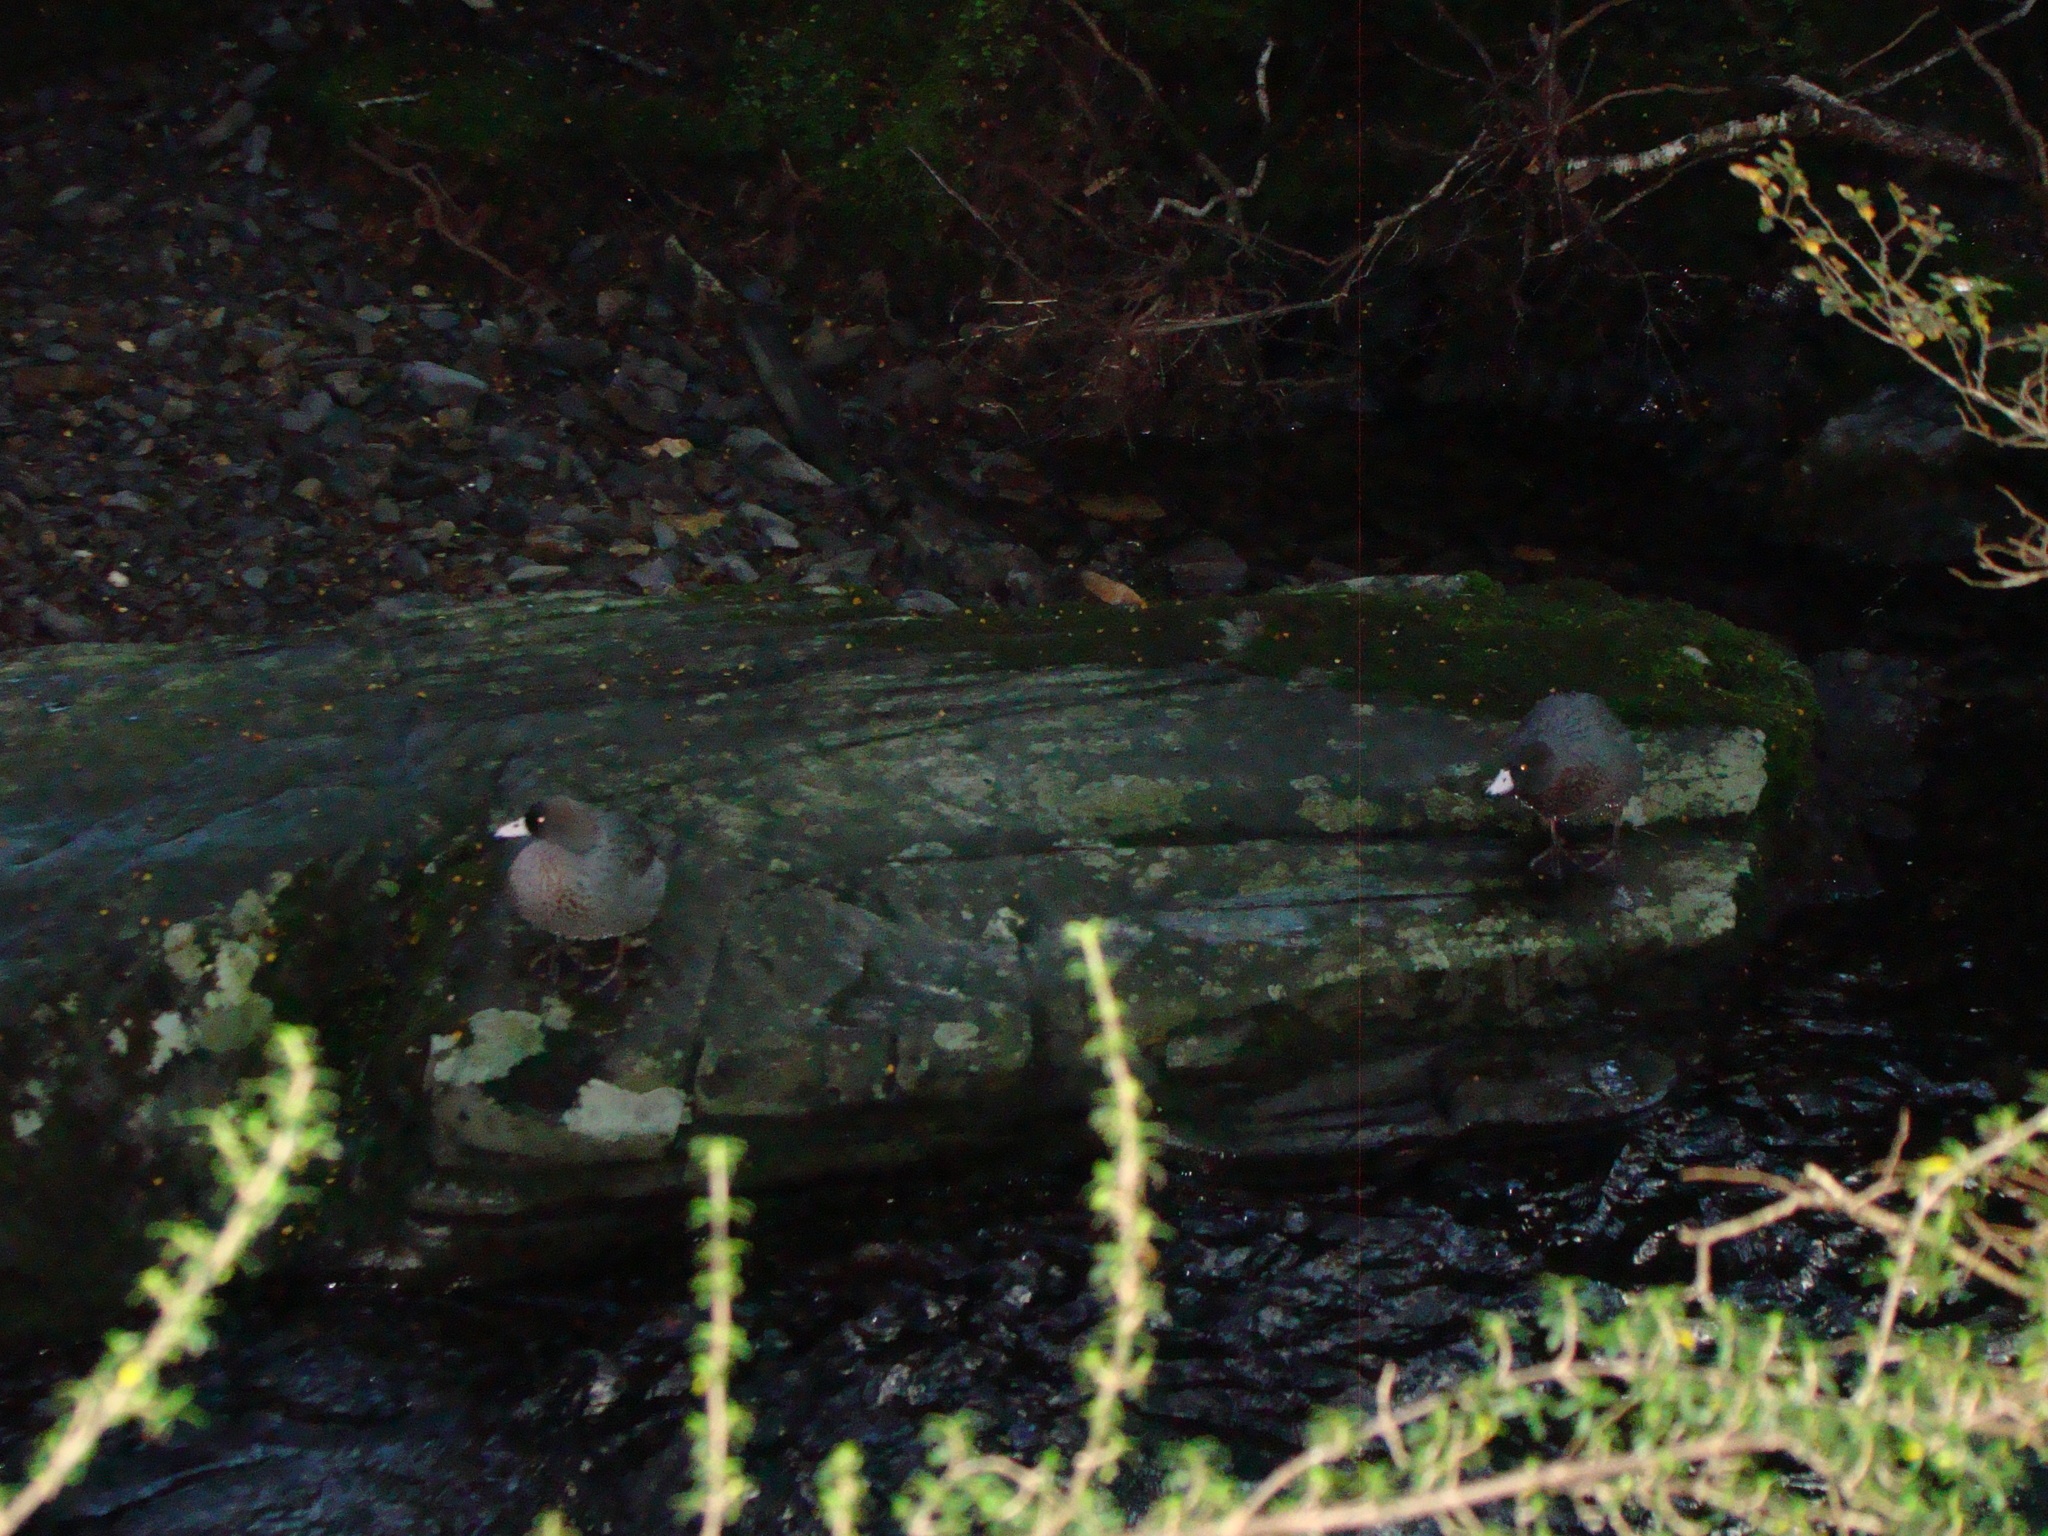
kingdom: Animalia
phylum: Chordata
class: Aves
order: Anseriformes
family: Anatidae
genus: Hymenolaimus
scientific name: Hymenolaimus malacorhynchos
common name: Blue duck
